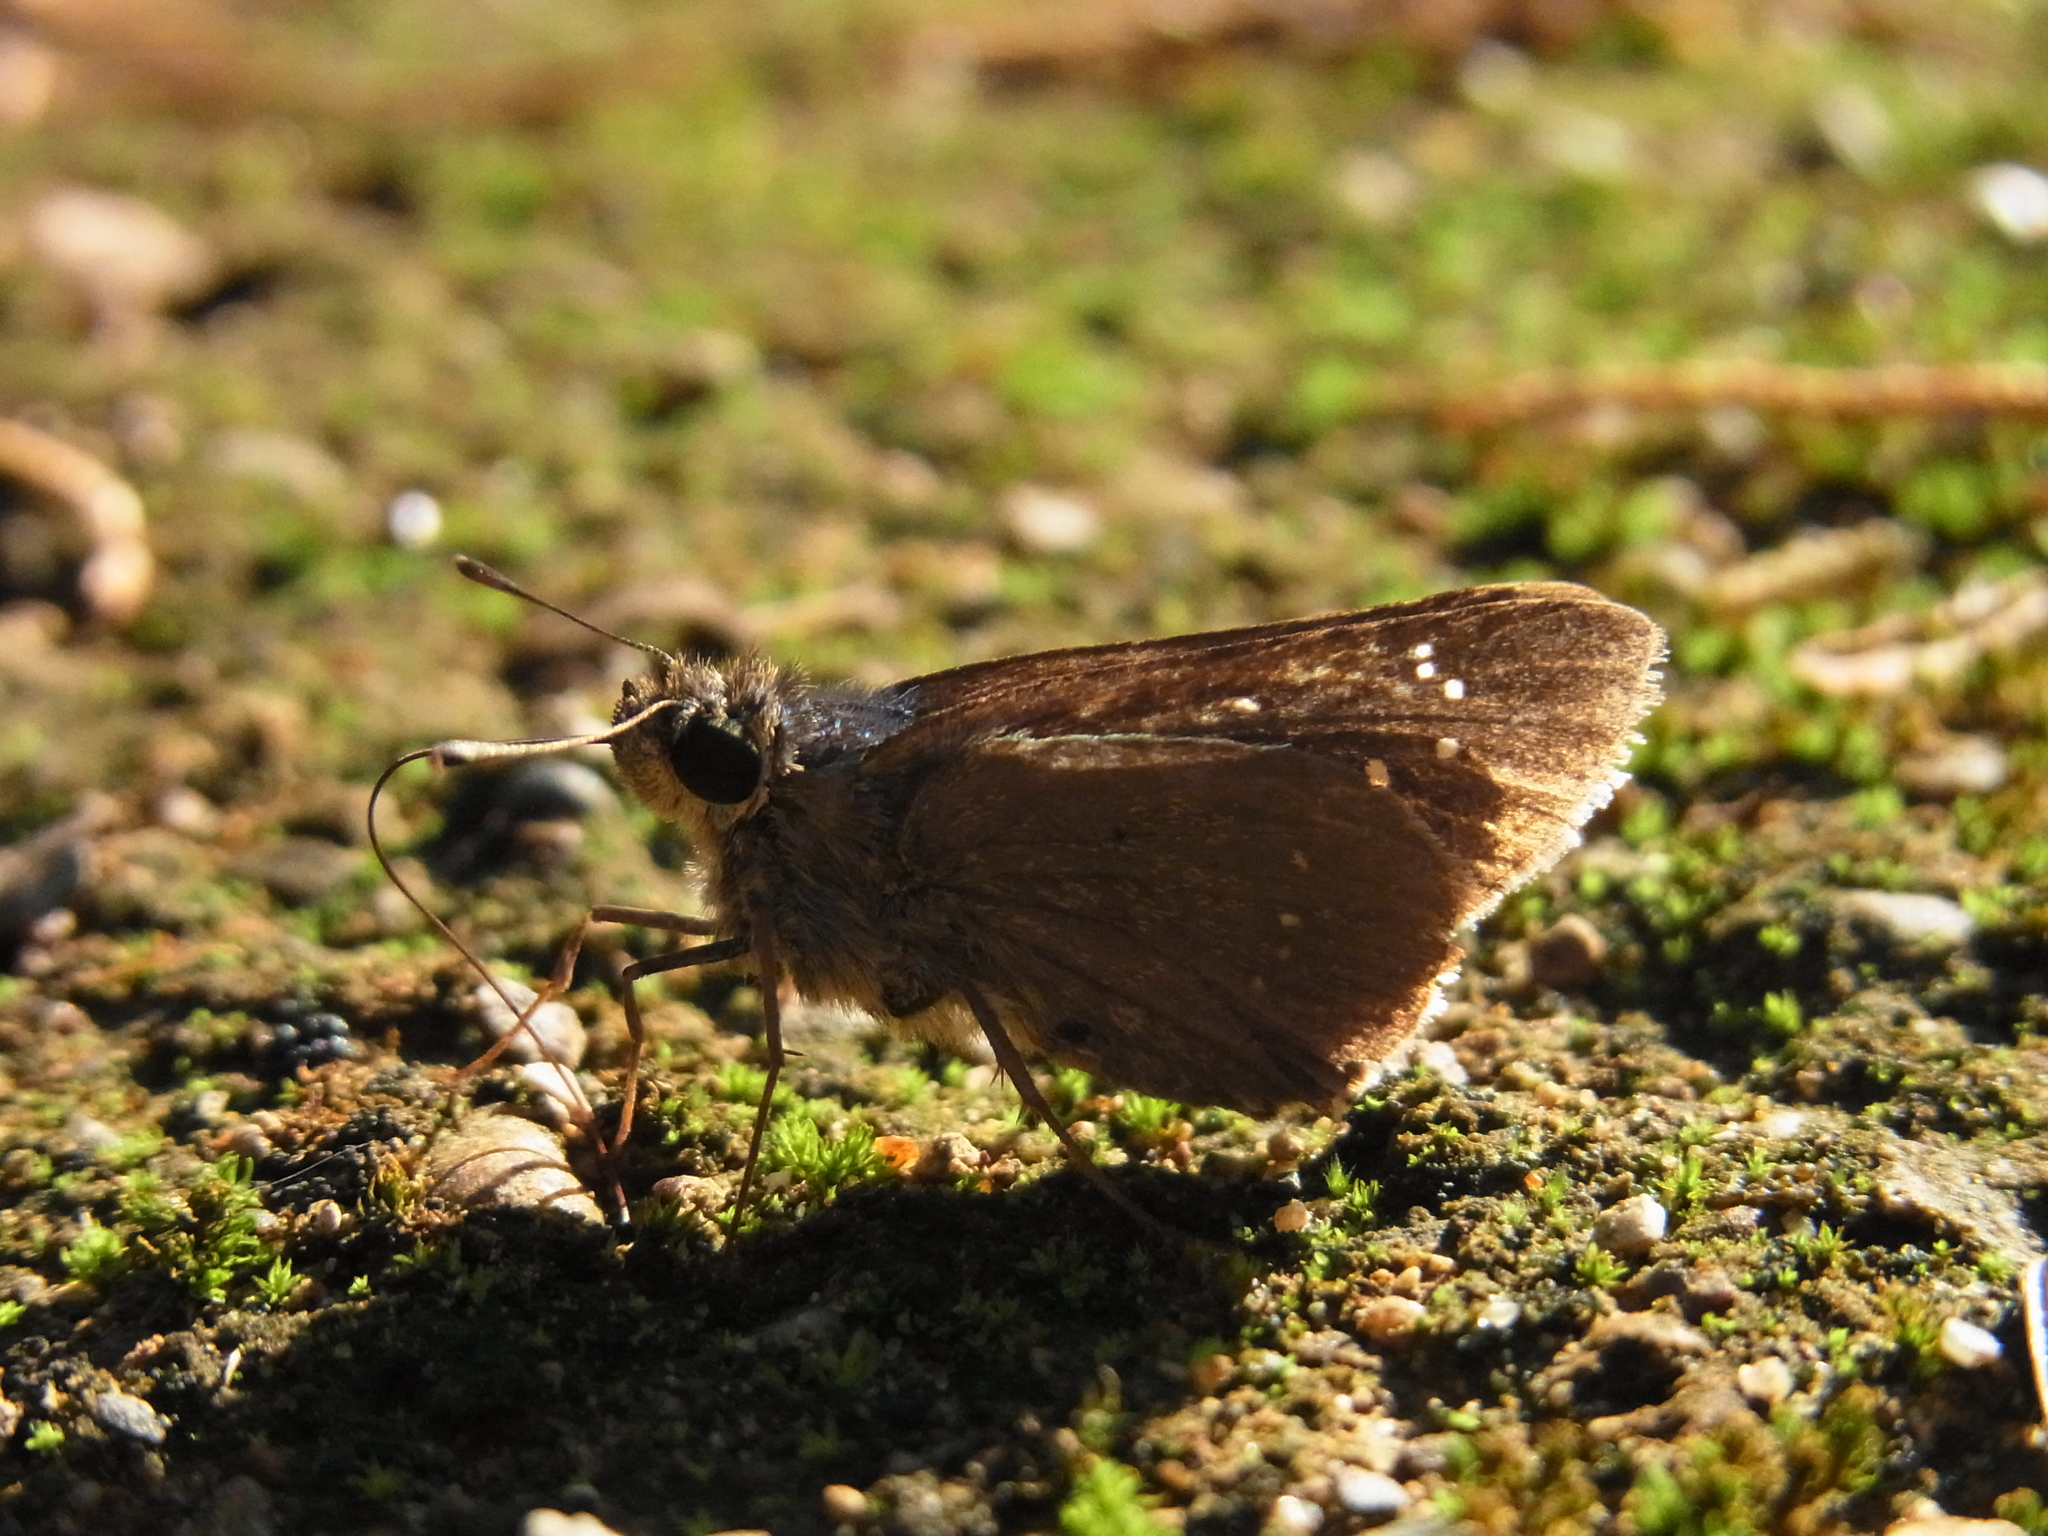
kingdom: Animalia
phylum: Arthropoda
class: Insecta
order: Lepidoptera
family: Hesperiidae
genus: Pelopidas
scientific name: Pelopidas mathias
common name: Black-branded swift
